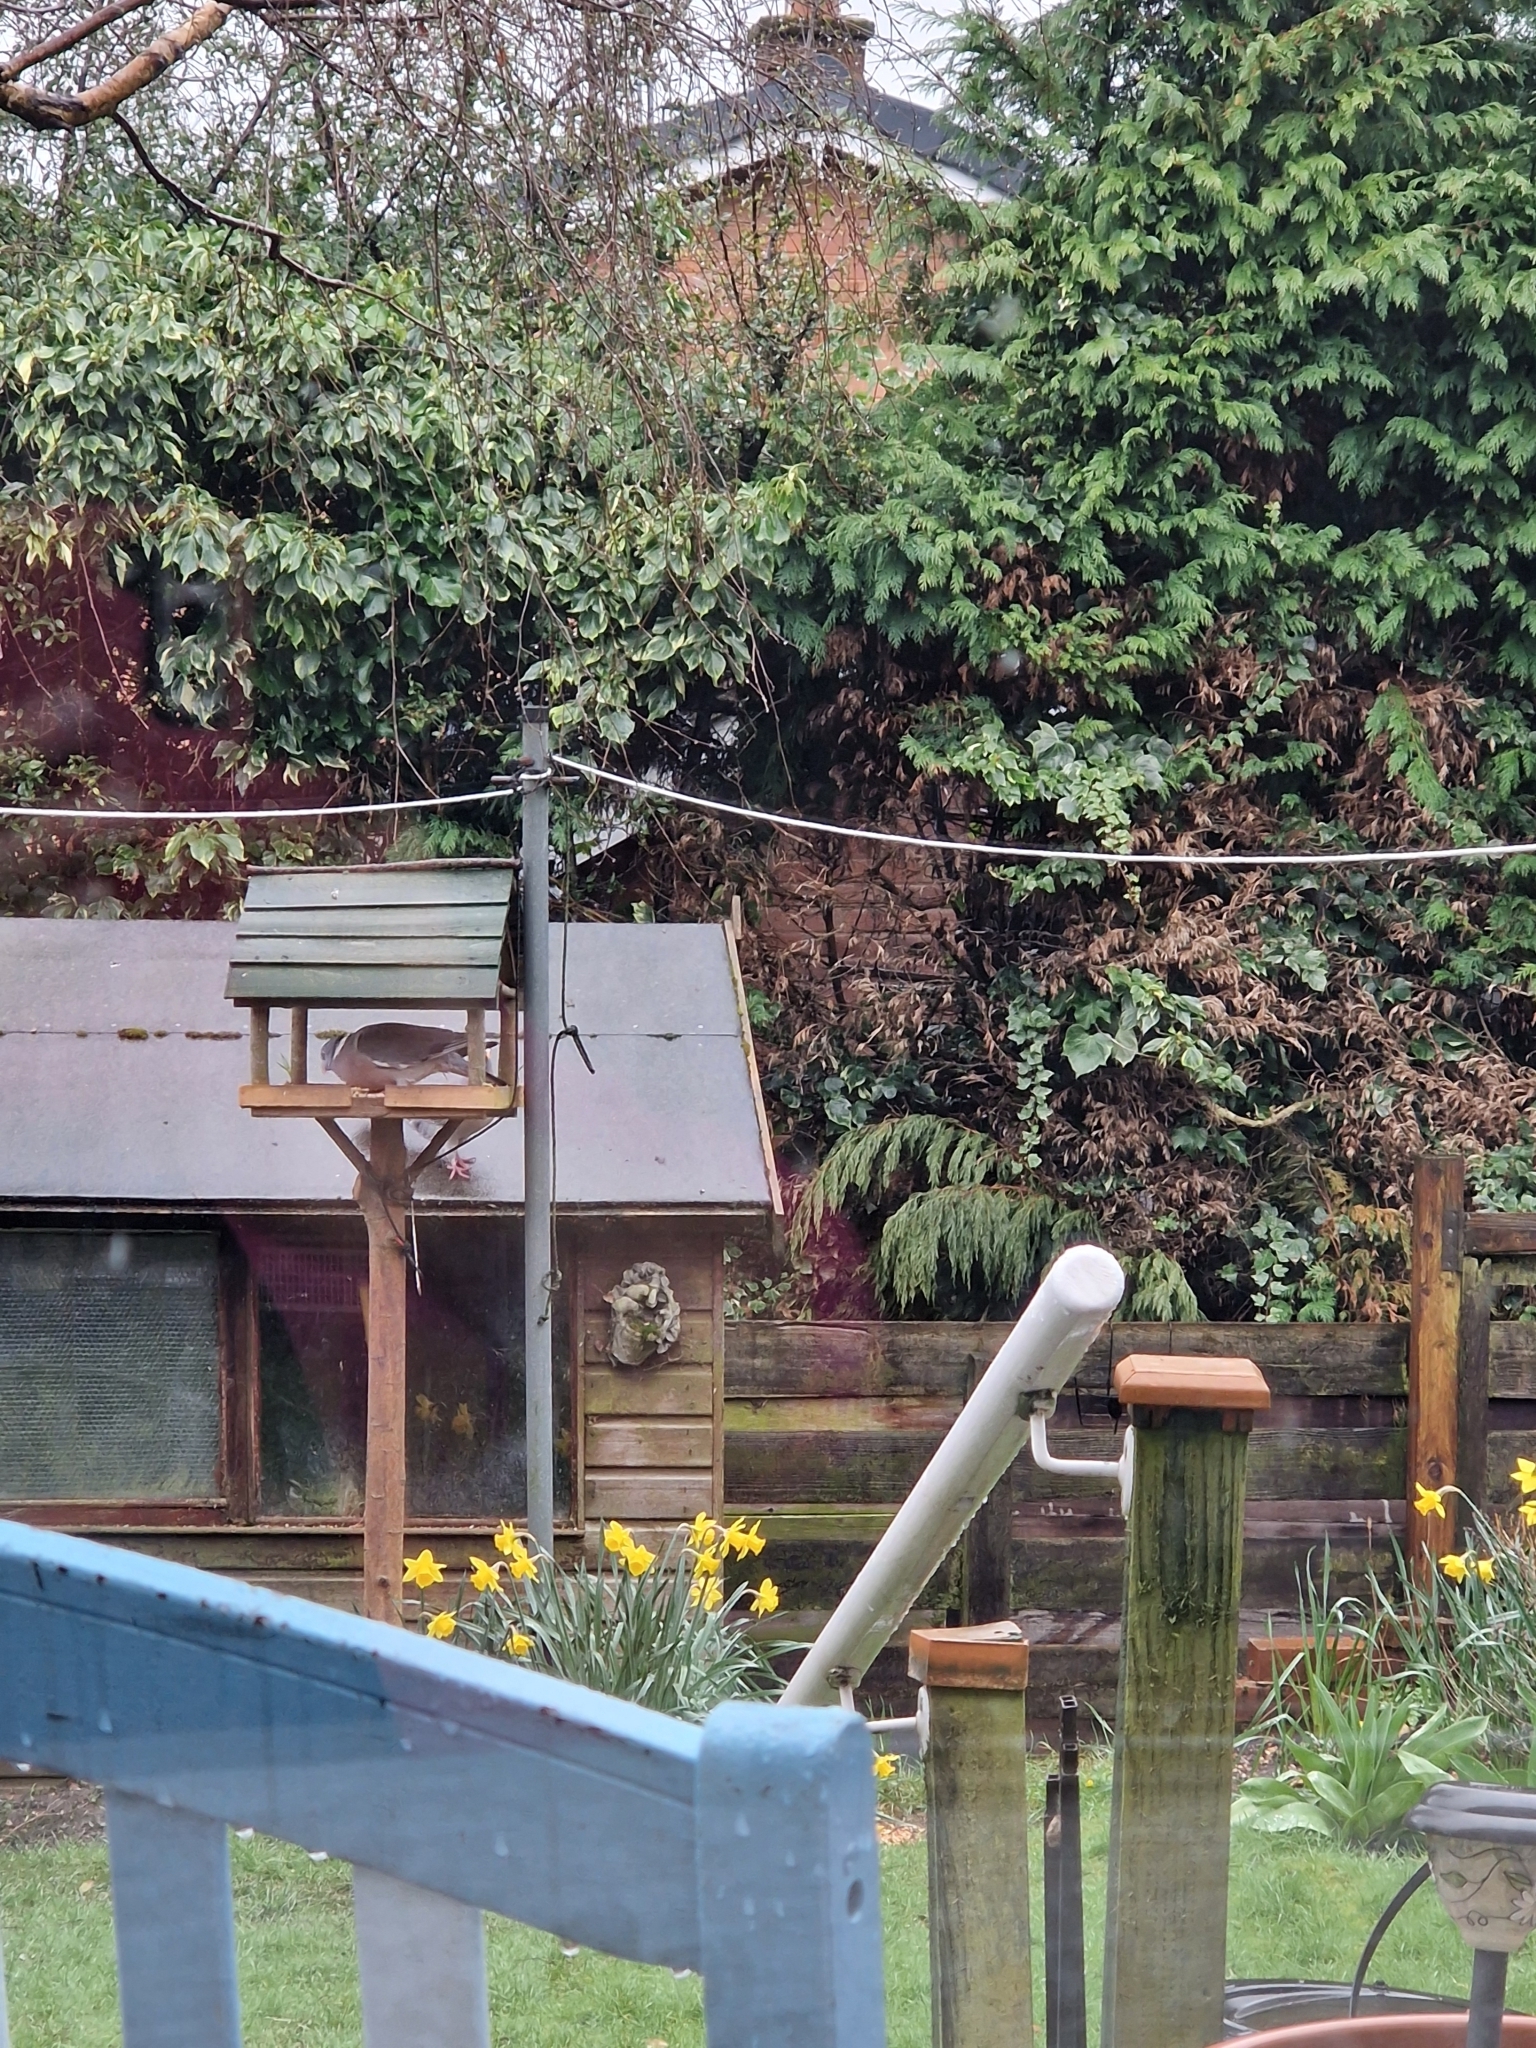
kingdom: Animalia
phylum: Chordata
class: Aves
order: Columbiformes
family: Columbidae
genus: Columba
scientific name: Columba palumbus
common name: Common wood pigeon
